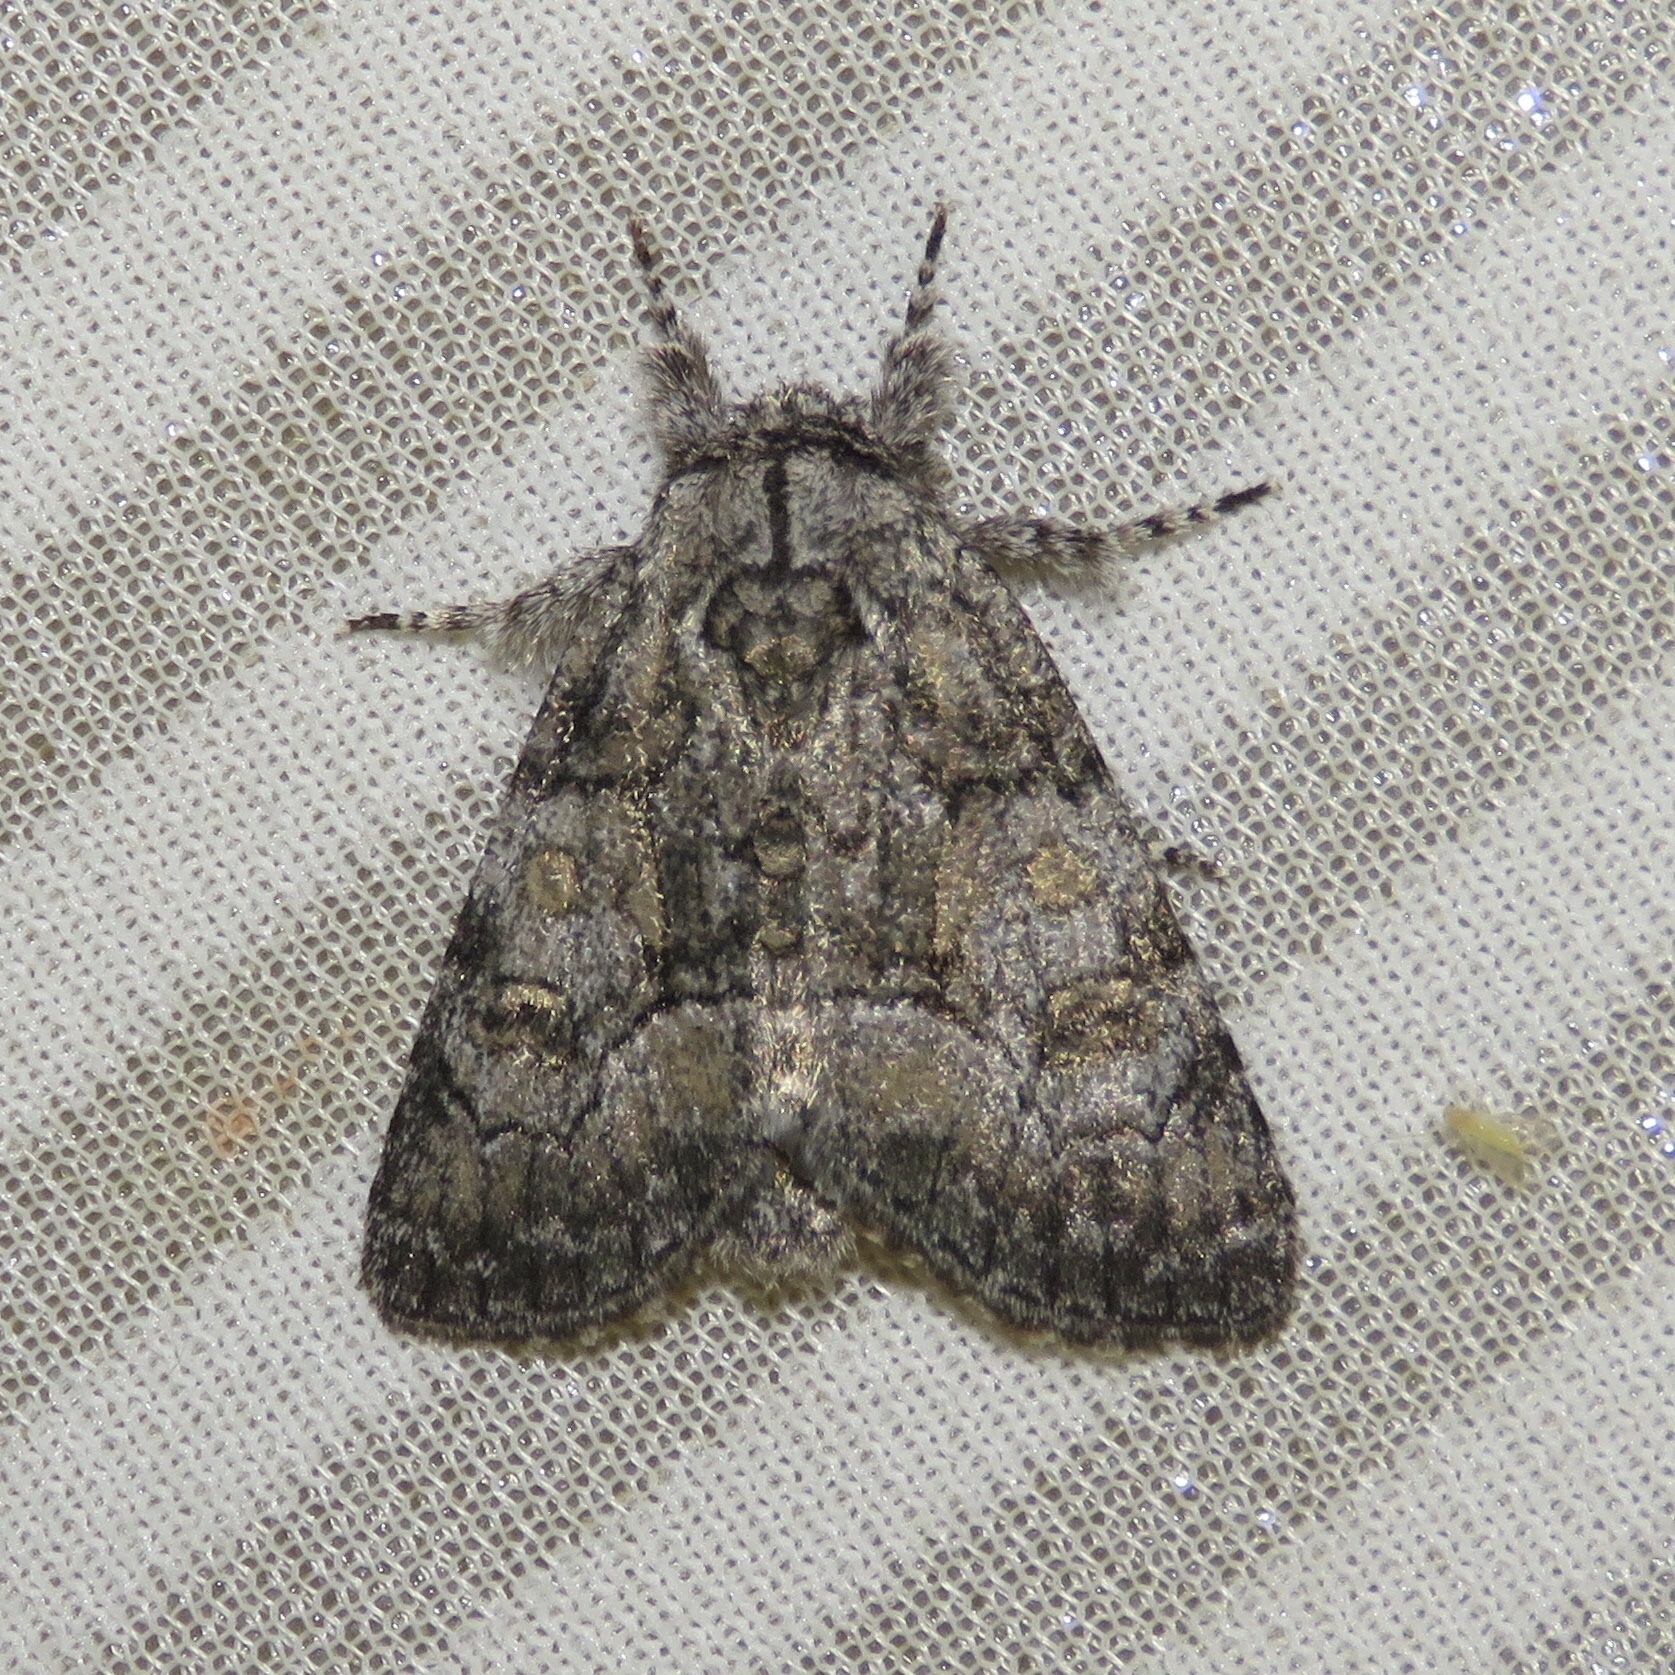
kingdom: Animalia
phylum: Arthropoda
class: Insecta
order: Lepidoptera
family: Noctuidae
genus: Raphia
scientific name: Raphia frater
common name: Brother
